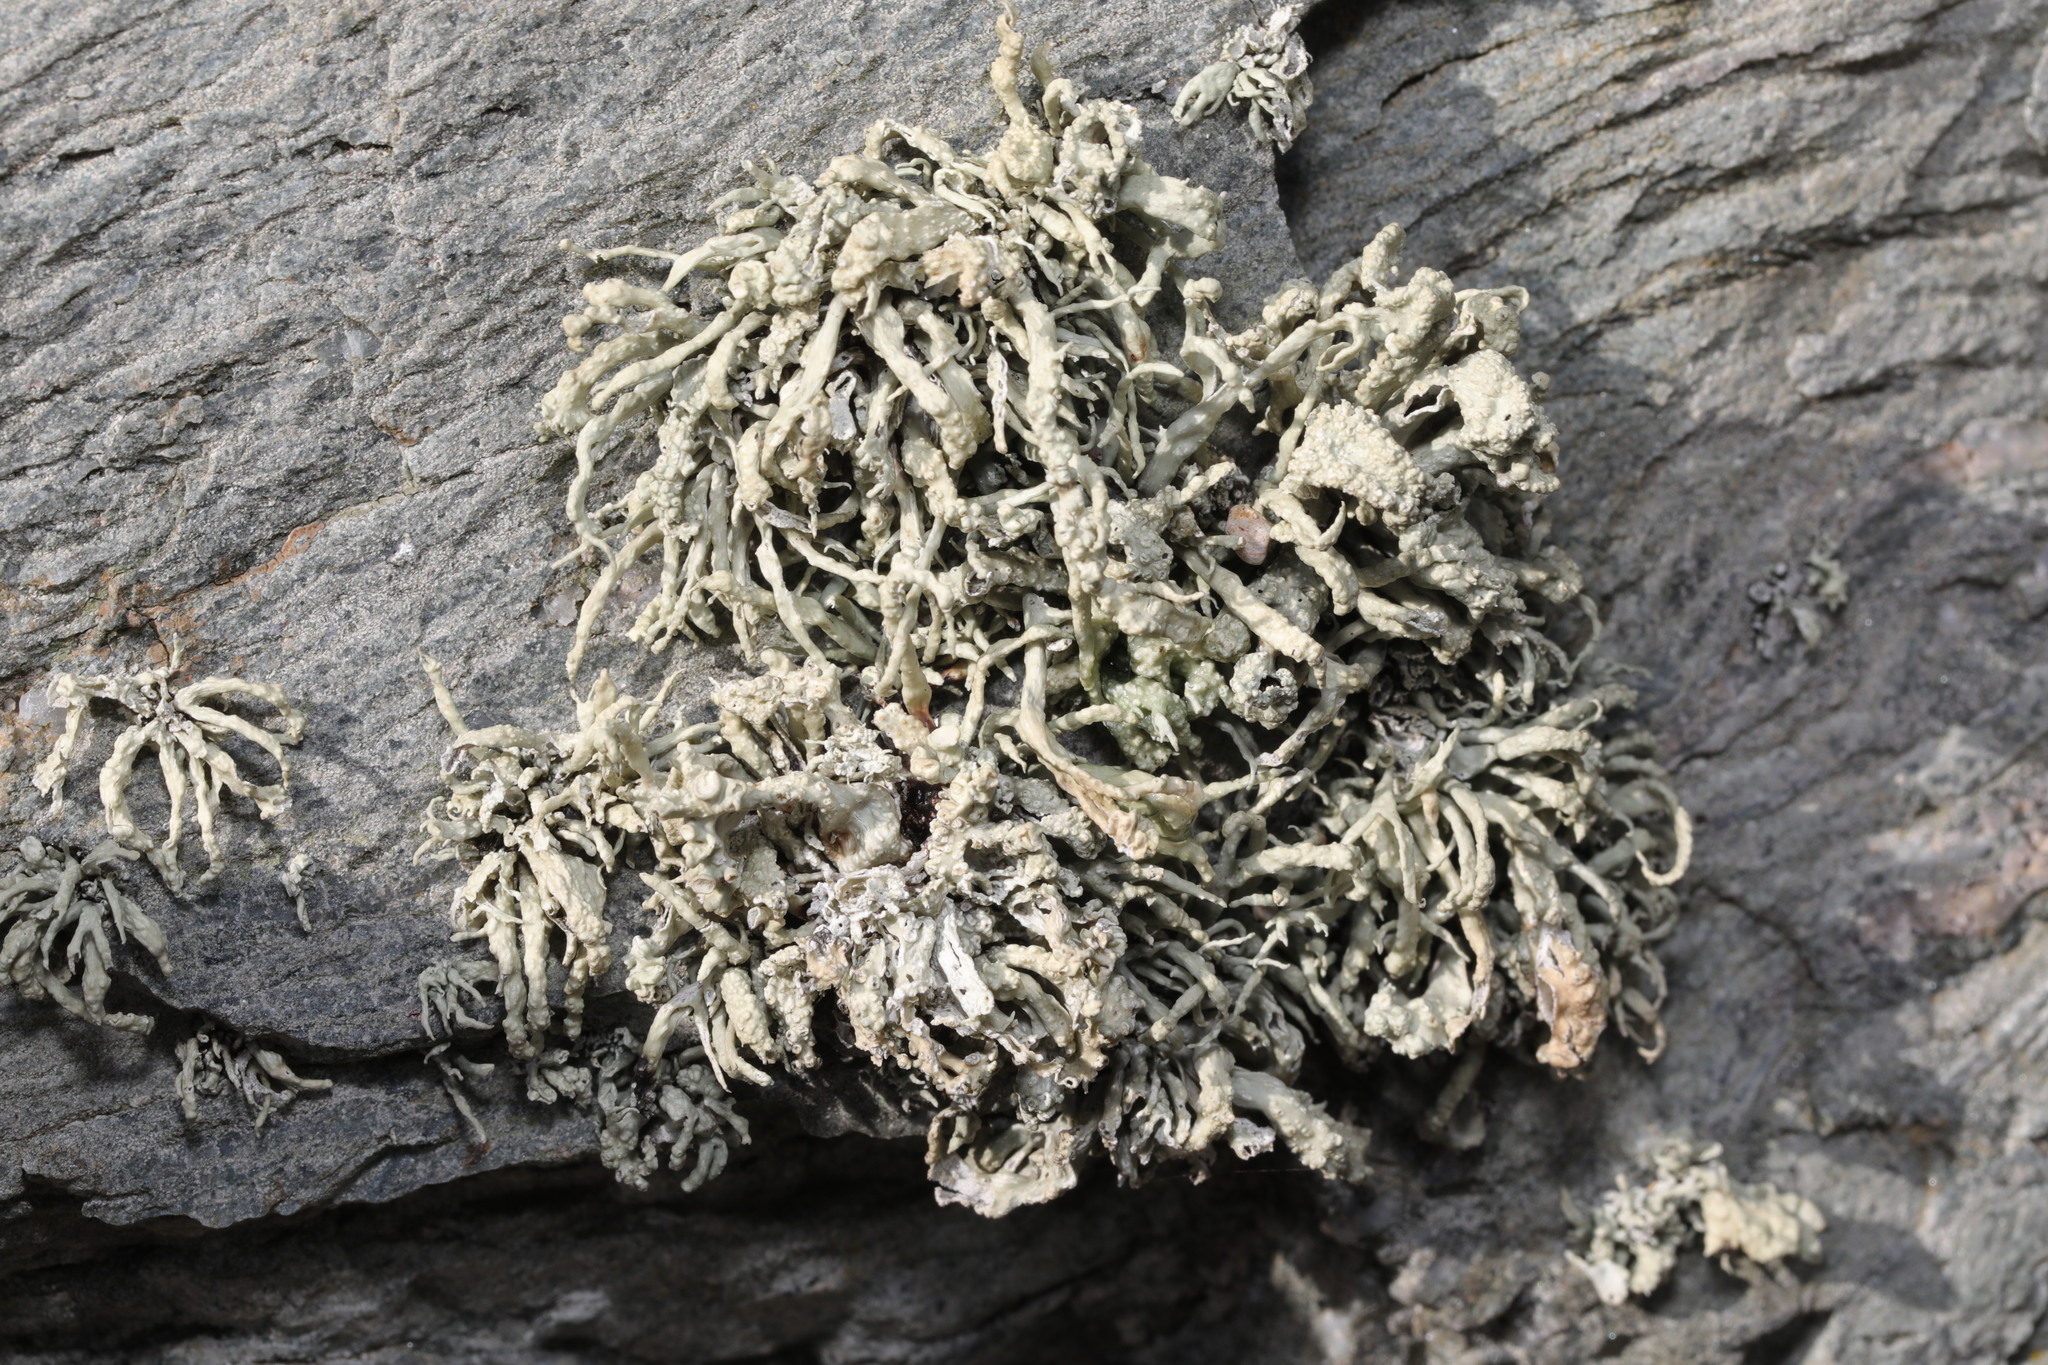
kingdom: Fungi
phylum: Ascomycota
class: Lecanoromycetes
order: Lecanorales
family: Ramalinaceae
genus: Ramalina
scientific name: Ramalina siliquosa
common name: Sea ivory
